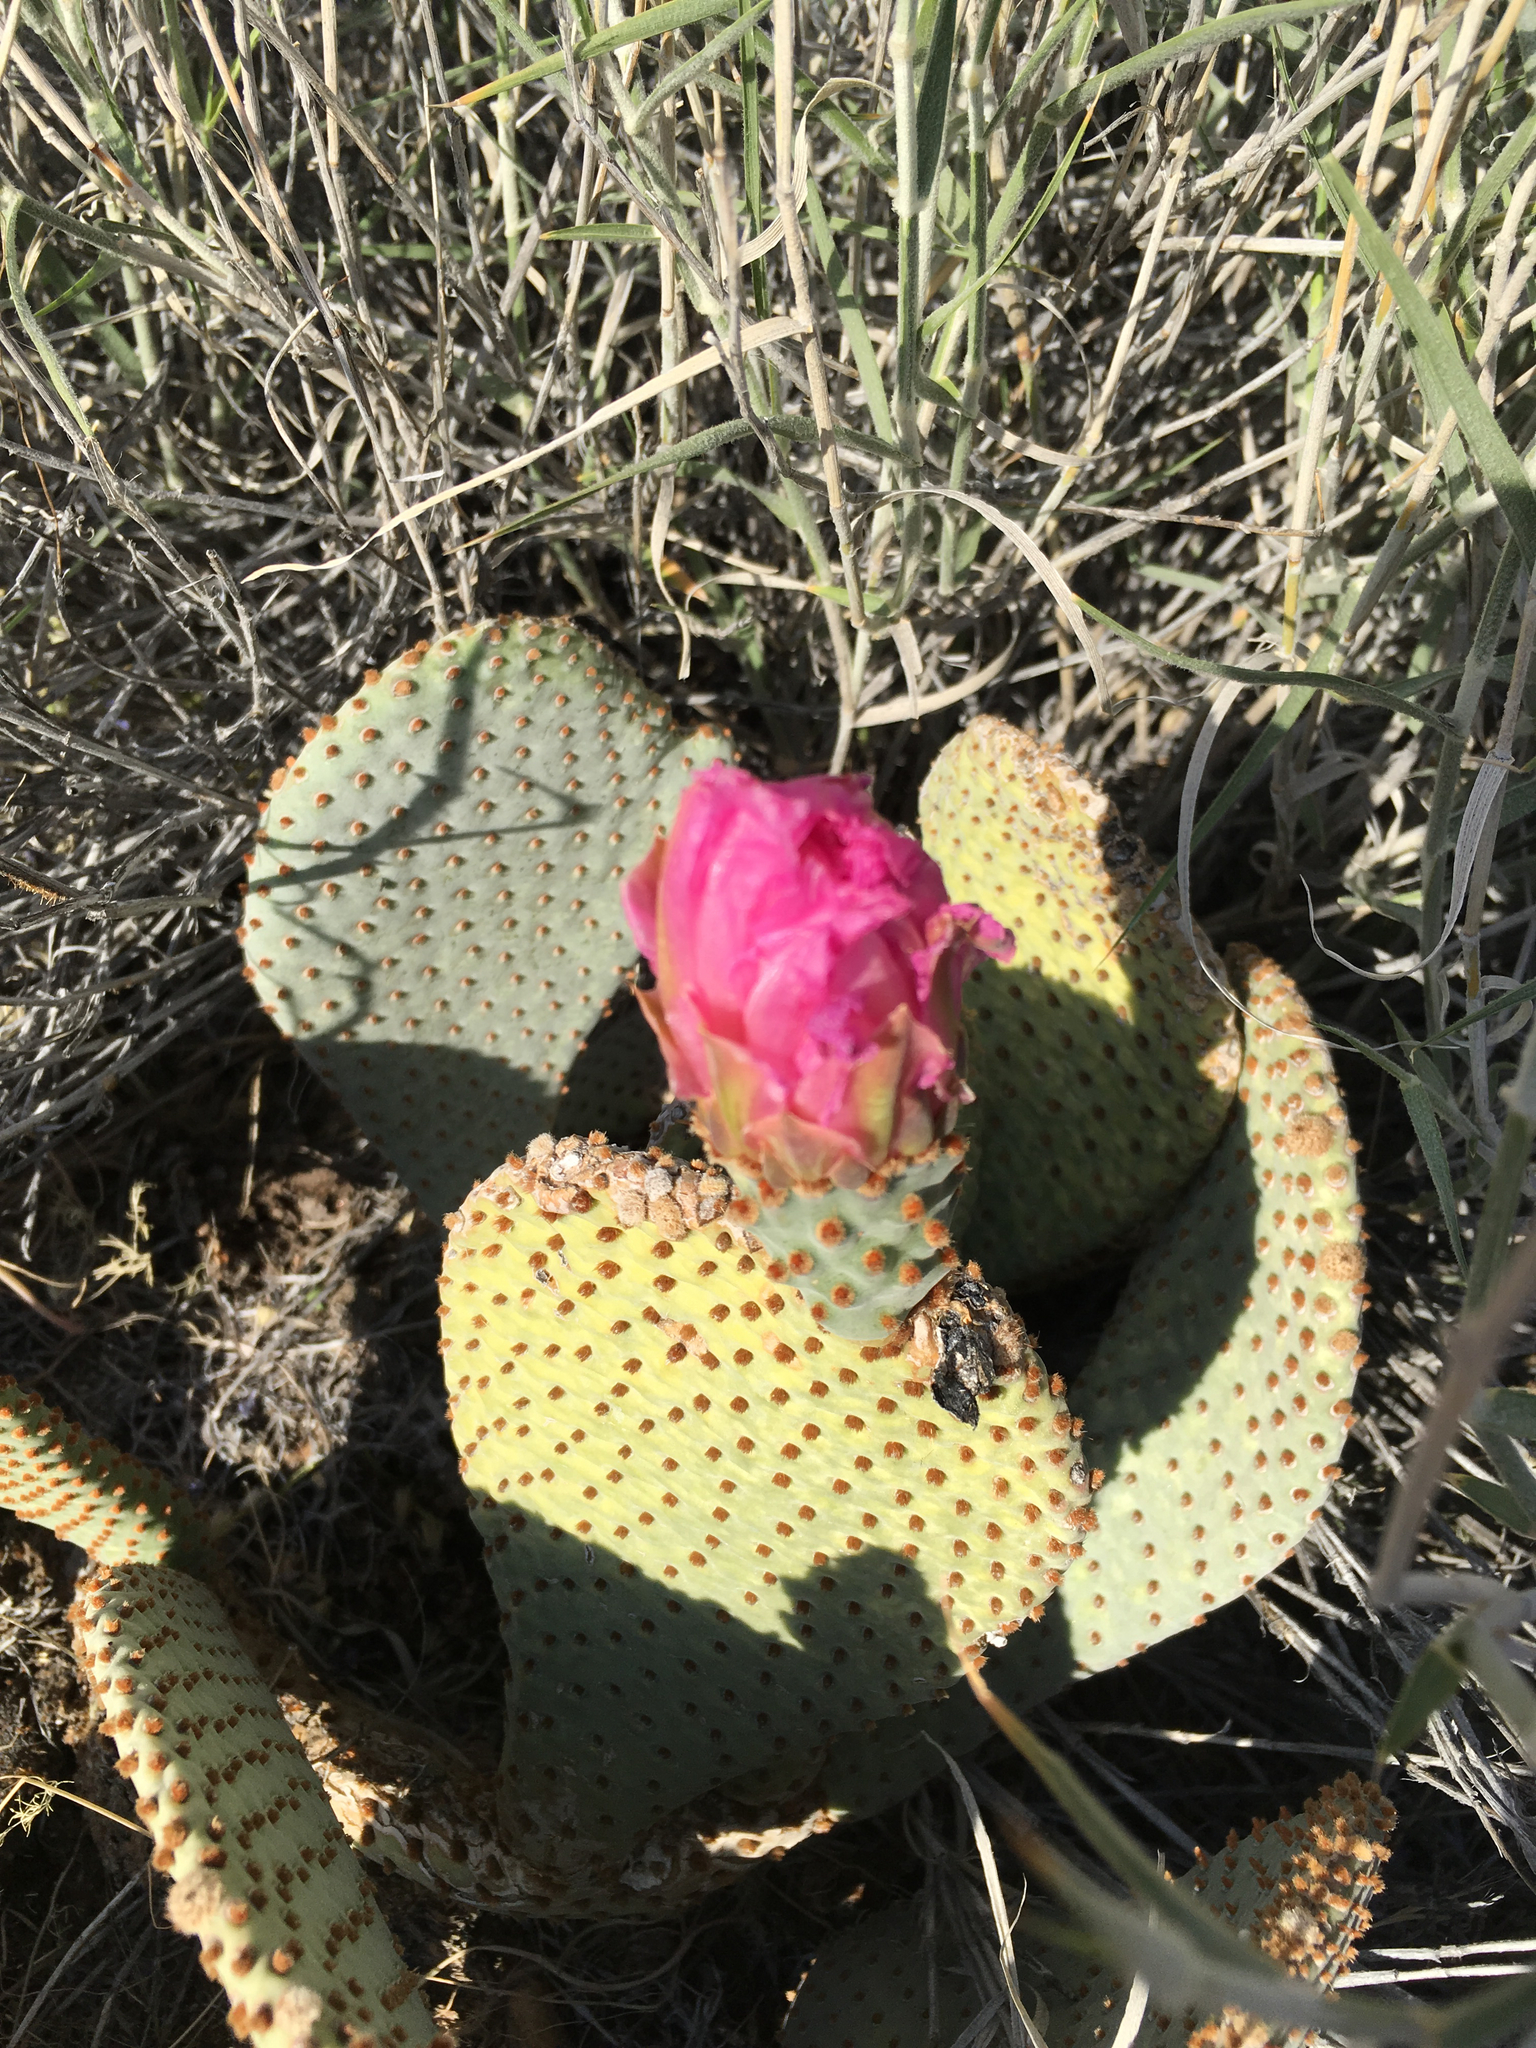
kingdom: Plantae
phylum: Tracheophyta
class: Magnoliopsida
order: Caryophyllales
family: Cactaceae
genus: Opuntia
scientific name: Opuntia basilaris
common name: Beavertail prickly-pear
